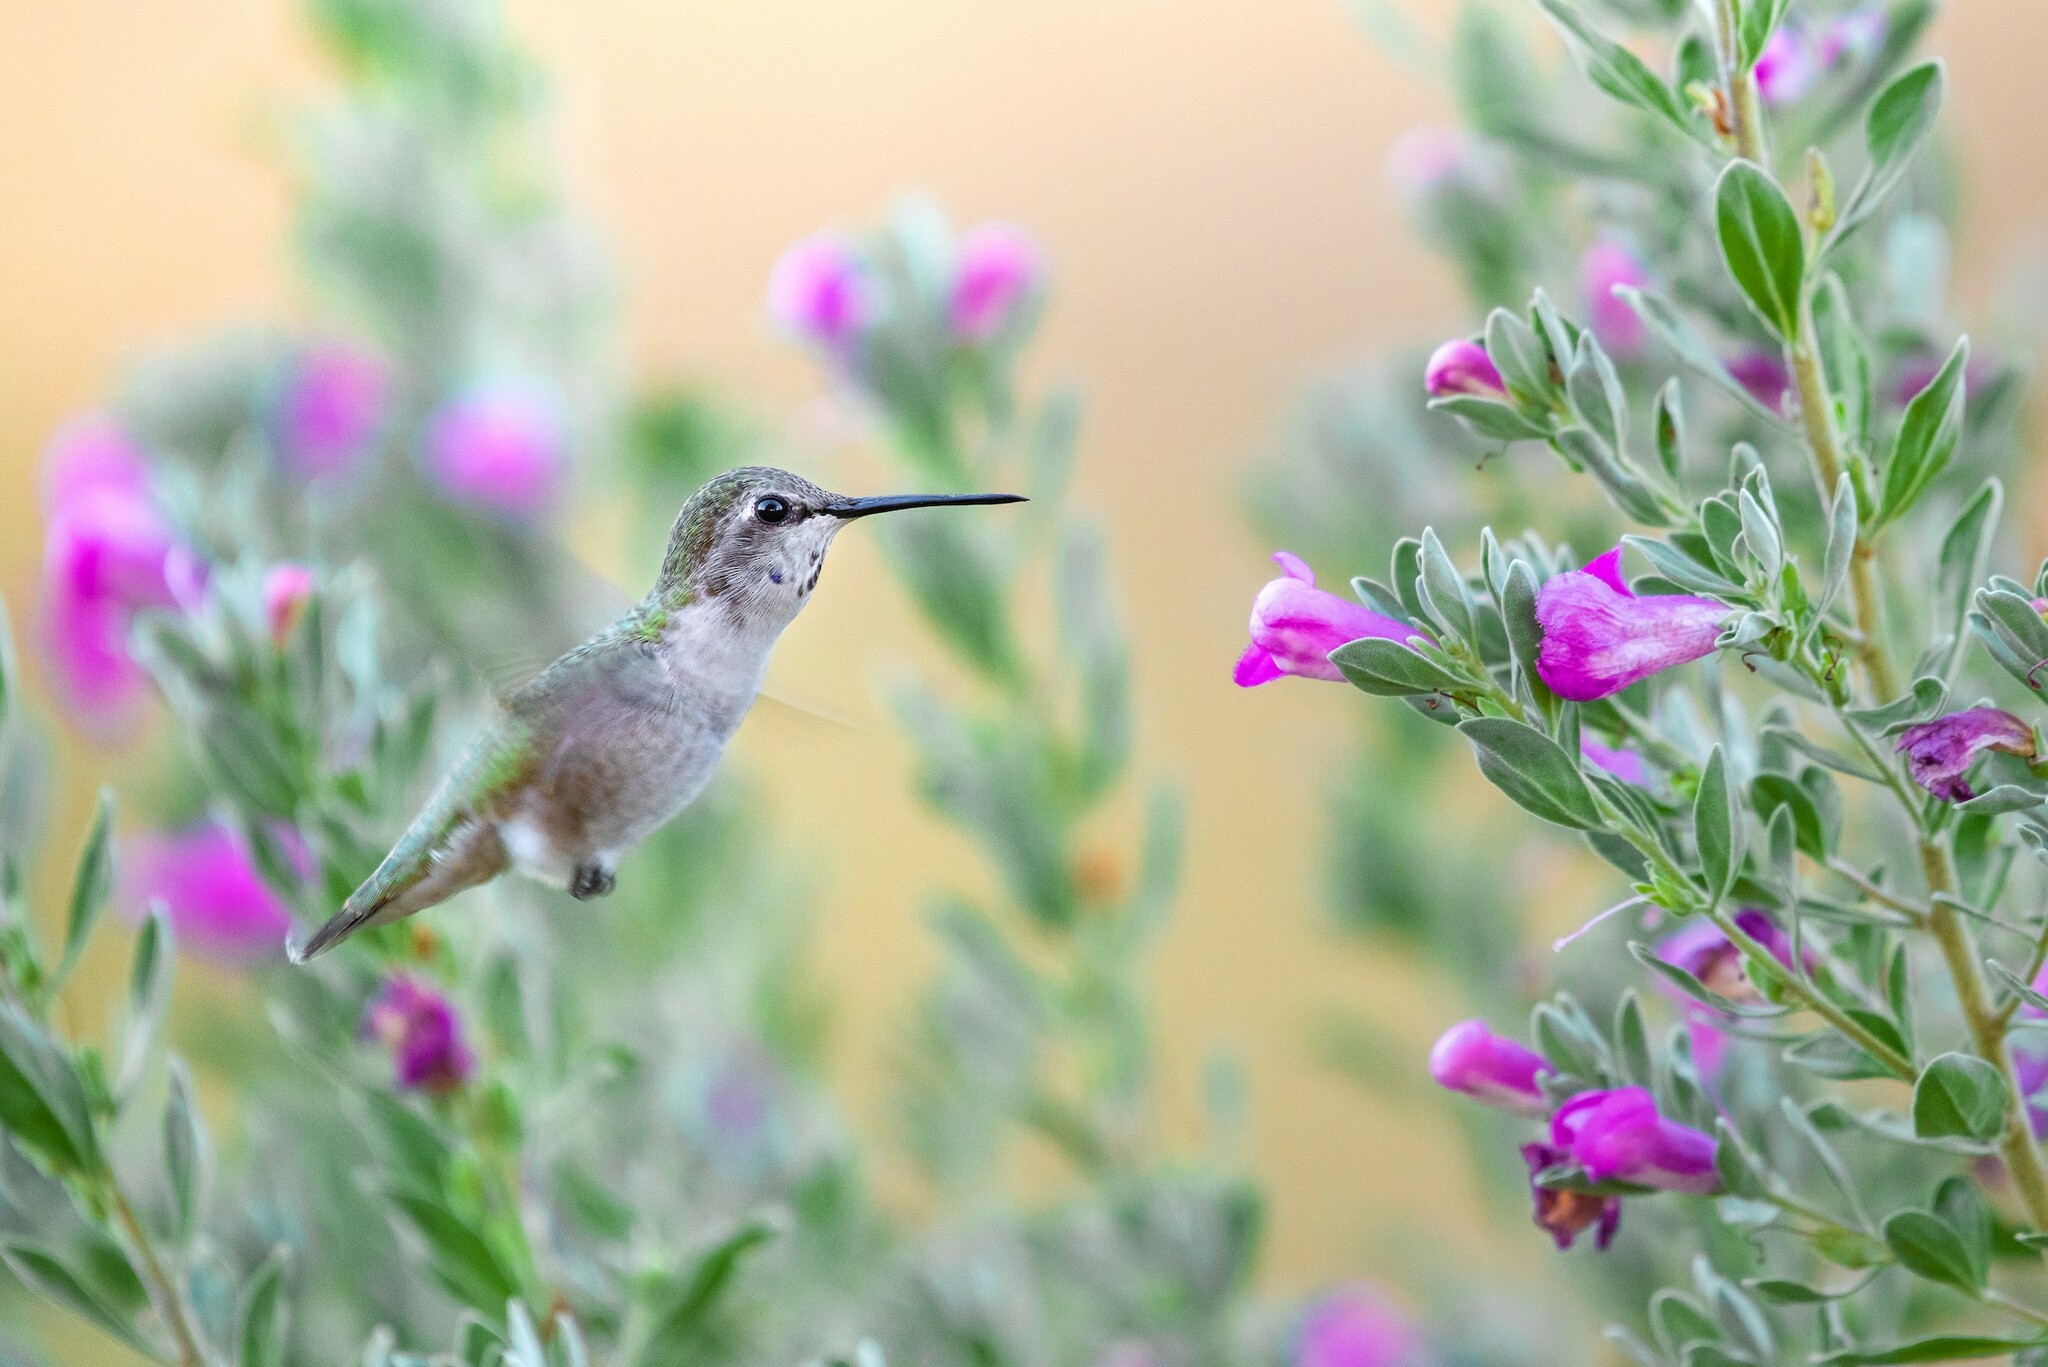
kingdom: Animalia
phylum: Chordata
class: Aves
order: Apodiformes
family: Trochilidae
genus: Calypte
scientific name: Calypte costae
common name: Costa's hummingbird
